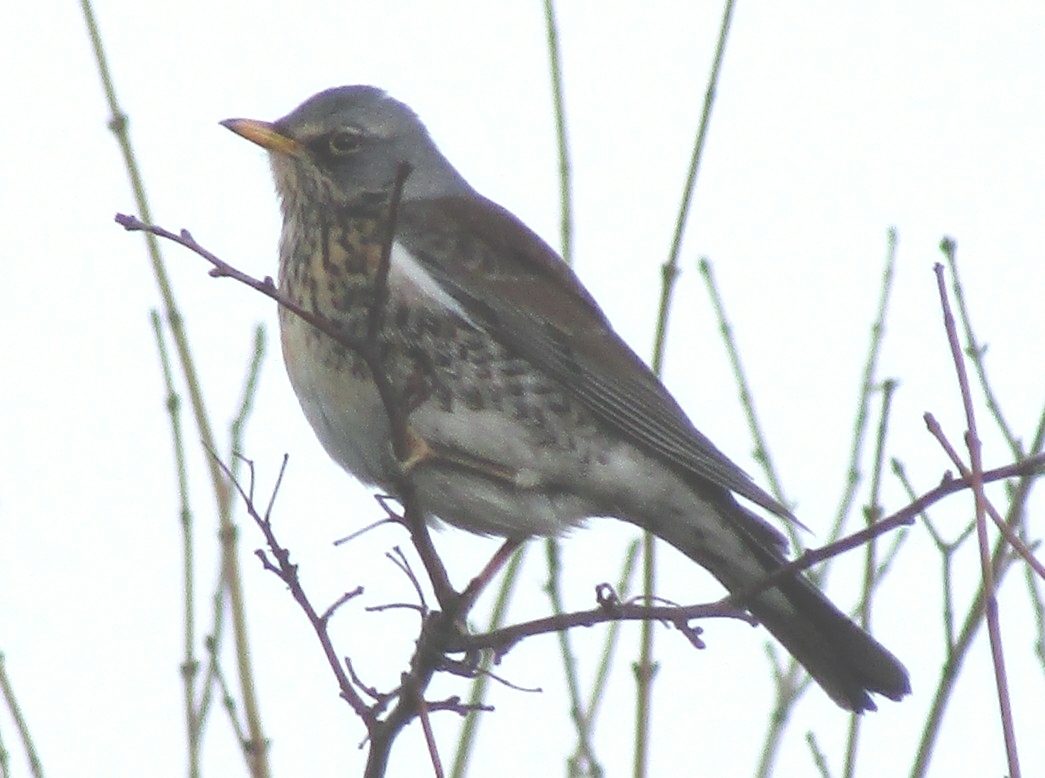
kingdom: Animalia
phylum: Chordata
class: Aves
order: Passeriformes
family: Turdidae
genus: Turdus
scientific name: Turdus pilaris
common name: Fieldfare
